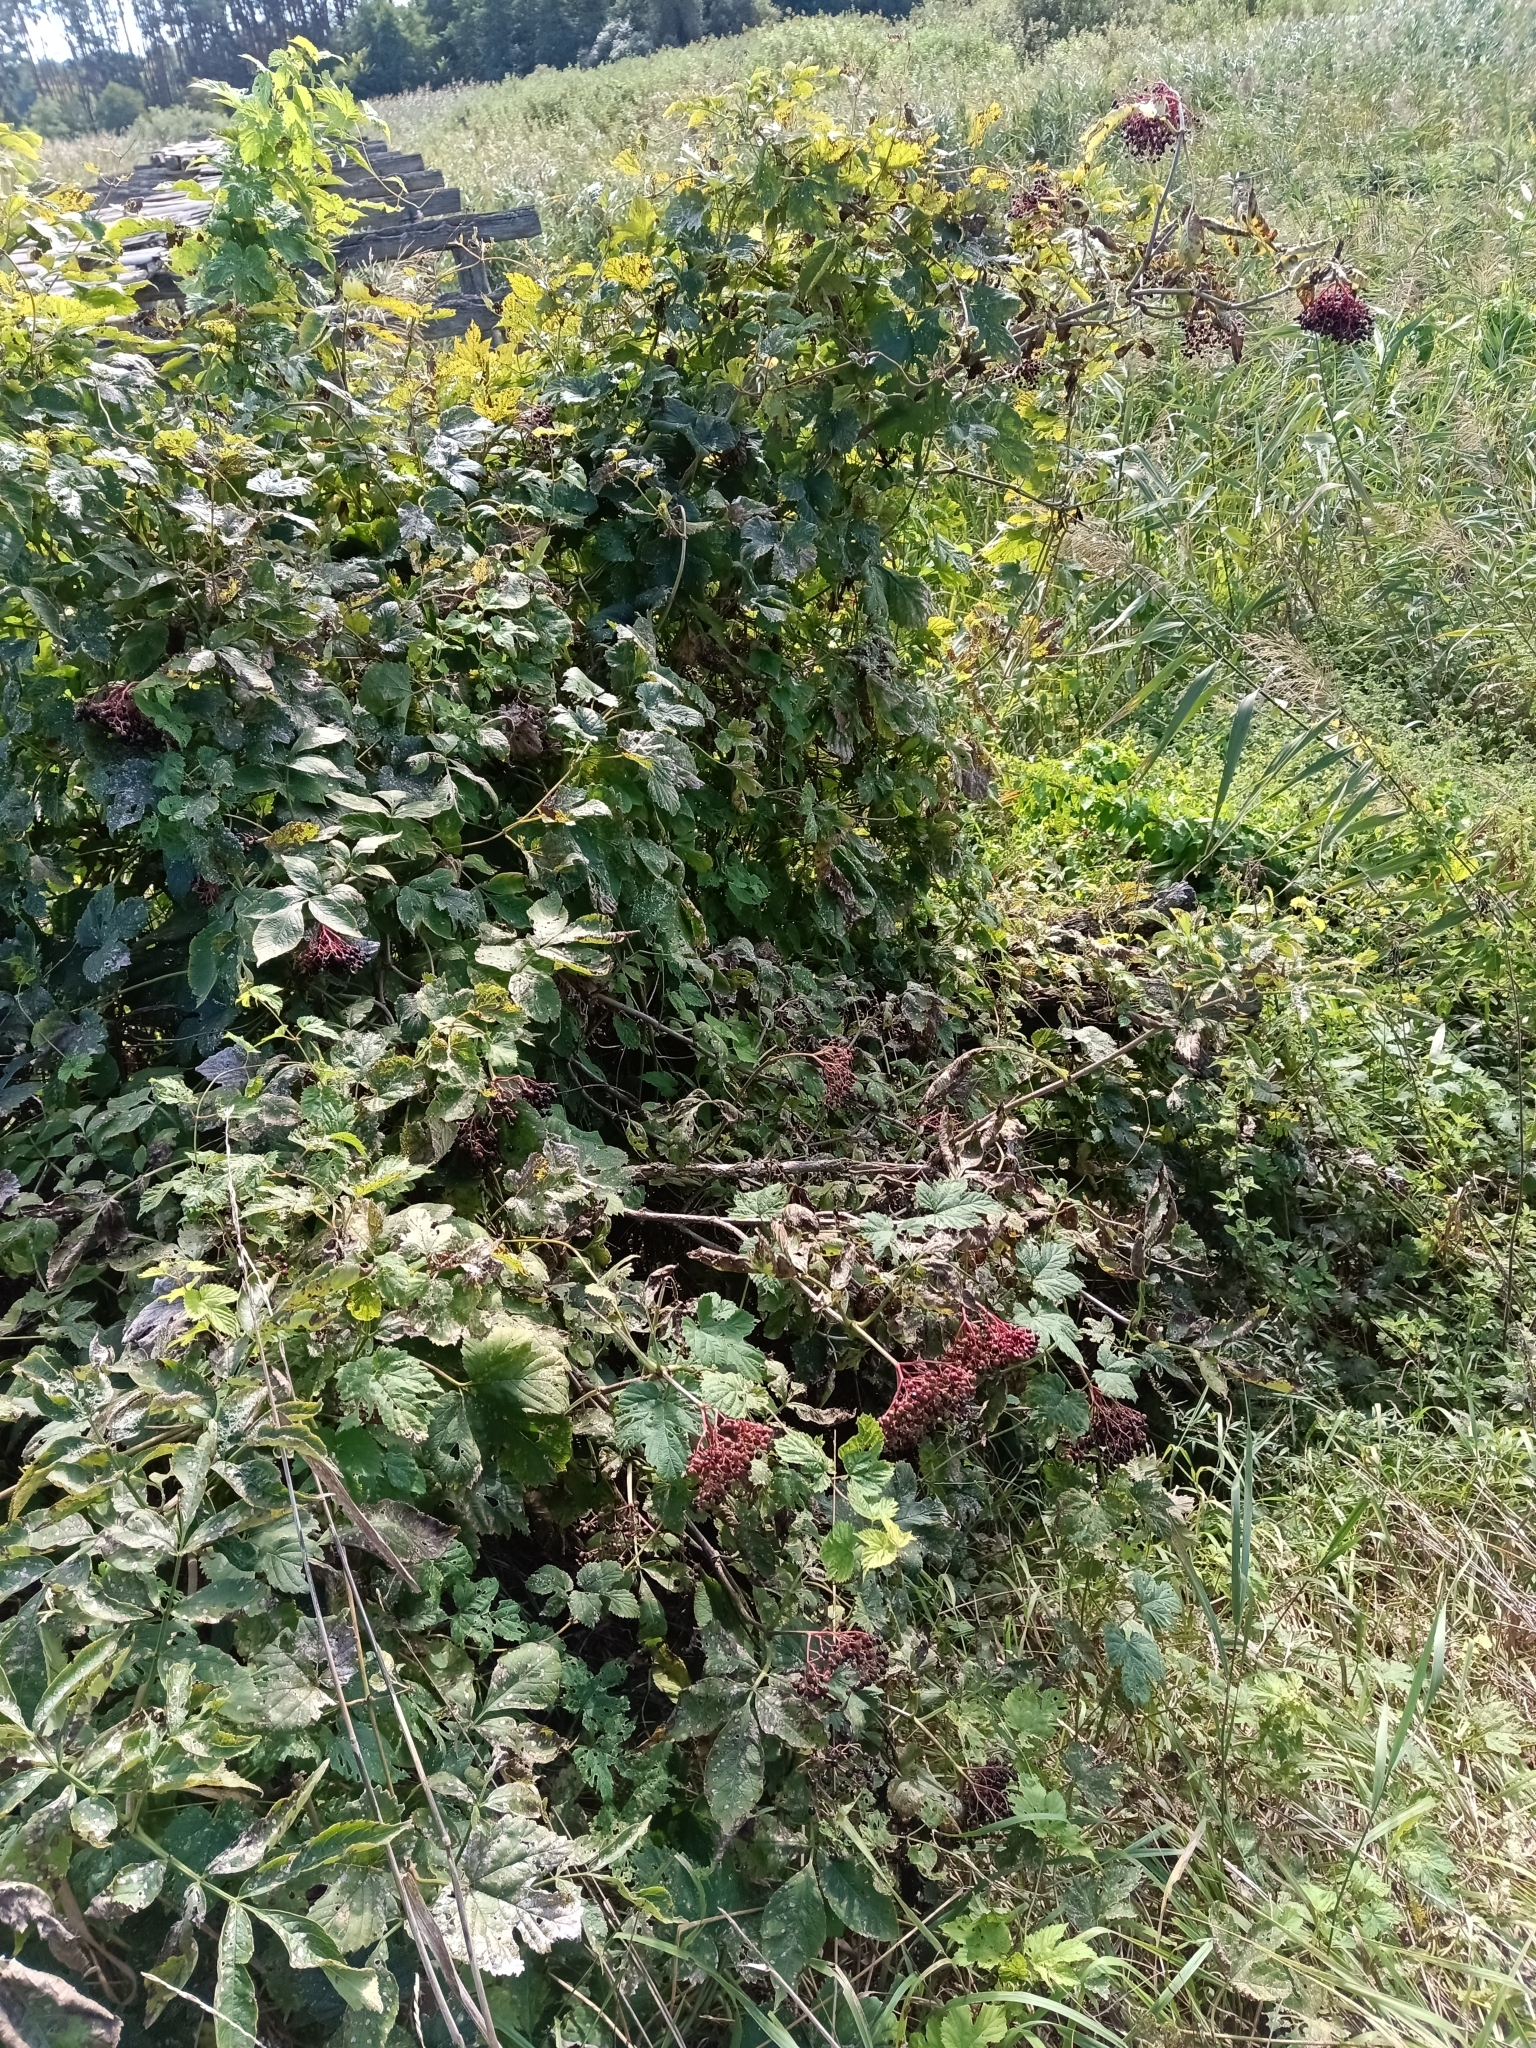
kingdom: Plantae
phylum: Tracheophyta
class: Magnoliopsida
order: Dipsacales
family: Viburnaceae
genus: Sambucus
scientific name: Sambucus nigra
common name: Elder
